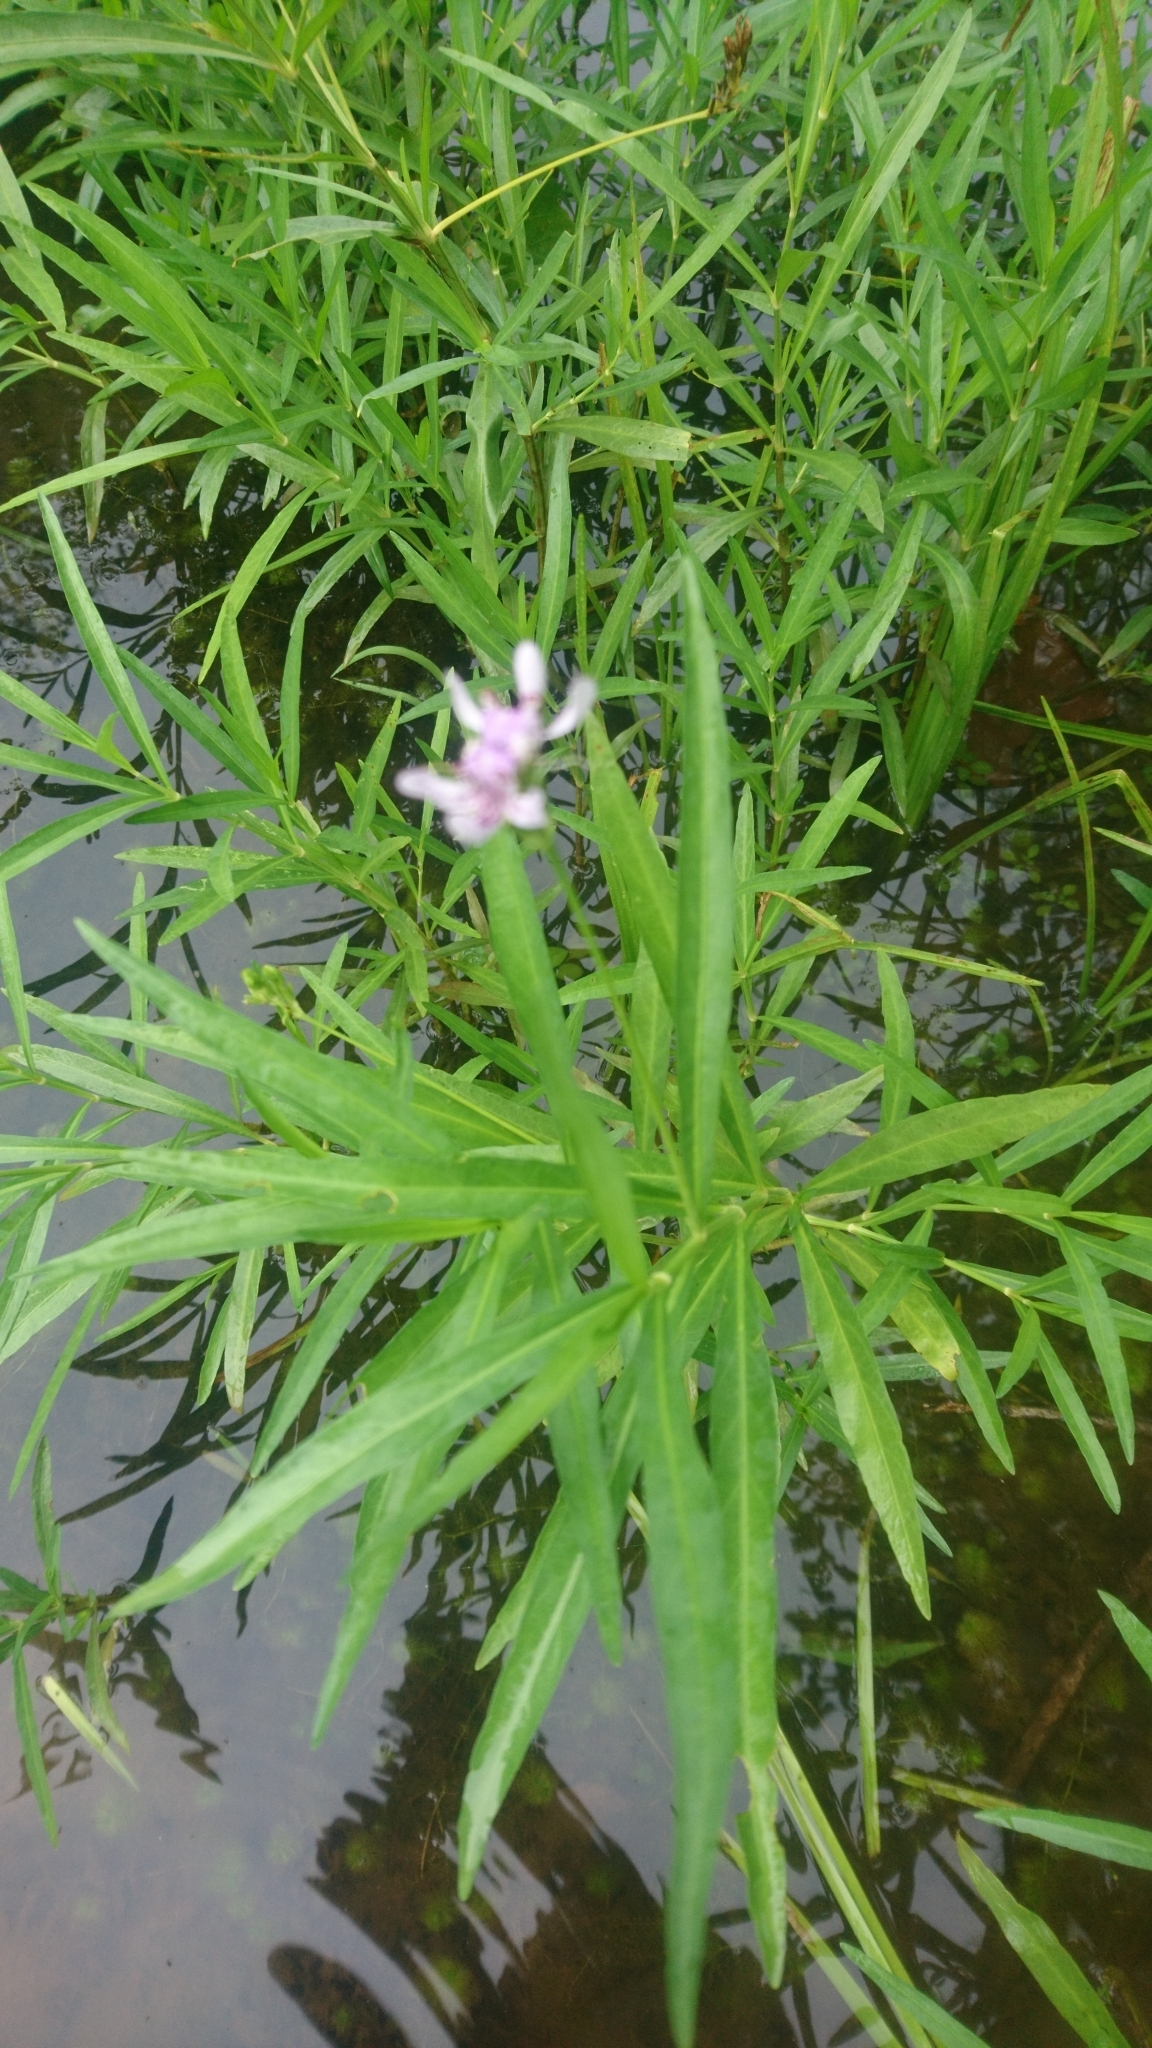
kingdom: Plantae
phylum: Tracheophyta
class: Magnoliopsida
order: Lamiales
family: Acanthaceae
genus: Dianthera
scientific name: Dianthera americana
